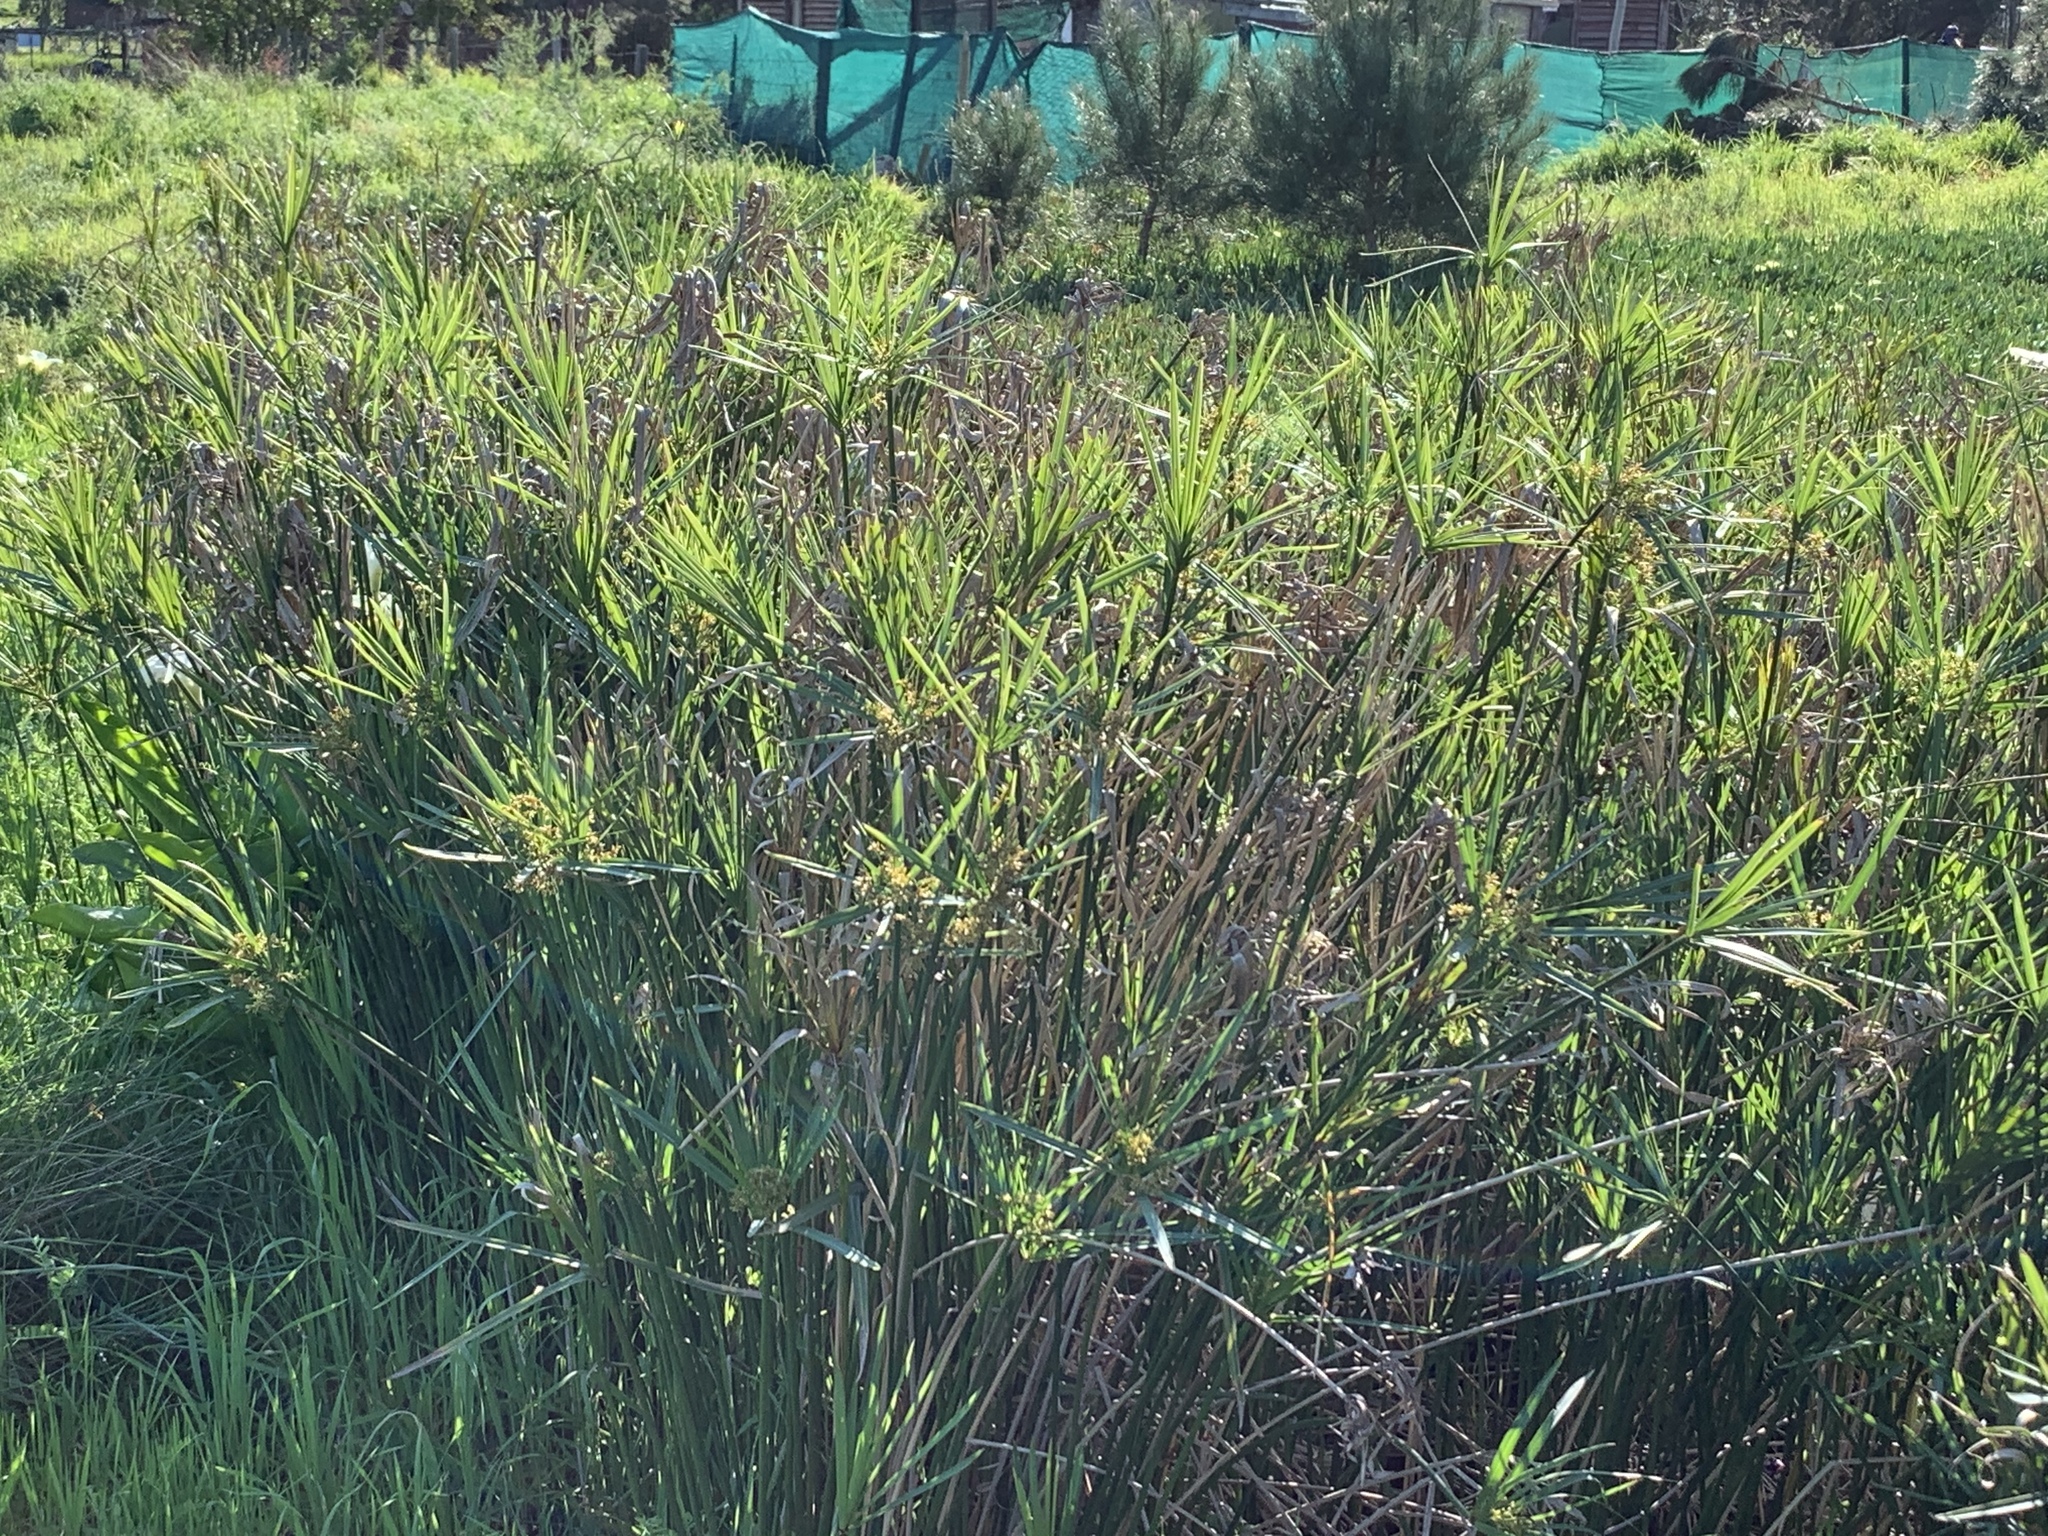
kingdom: Plantae
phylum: Tracheophyta
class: Liliopsida
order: Poales
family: Cyperaceae
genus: Cyperus
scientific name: Cyperus textilis
